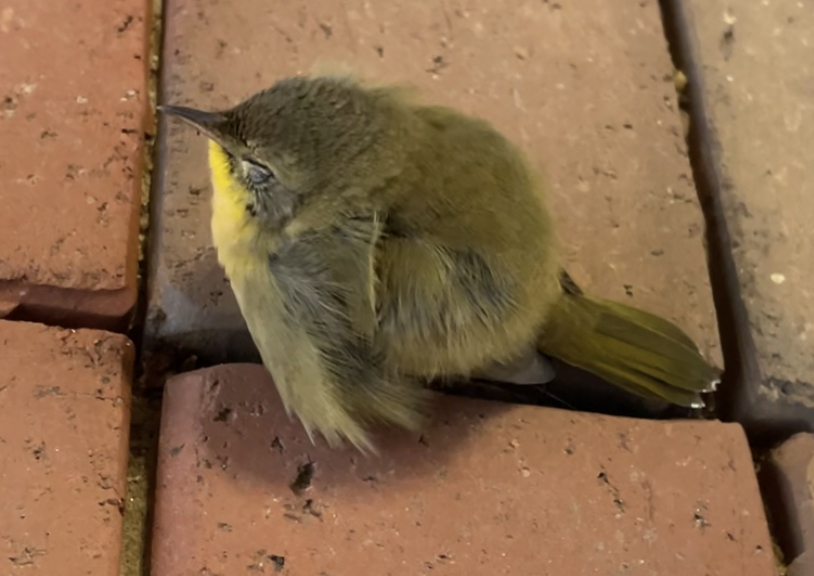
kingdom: Animalia
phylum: Chordata
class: Aves
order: Passeriformes
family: Parulidae
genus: Geothlypis
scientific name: Geothlypis trichas
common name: Common yellowthroat
